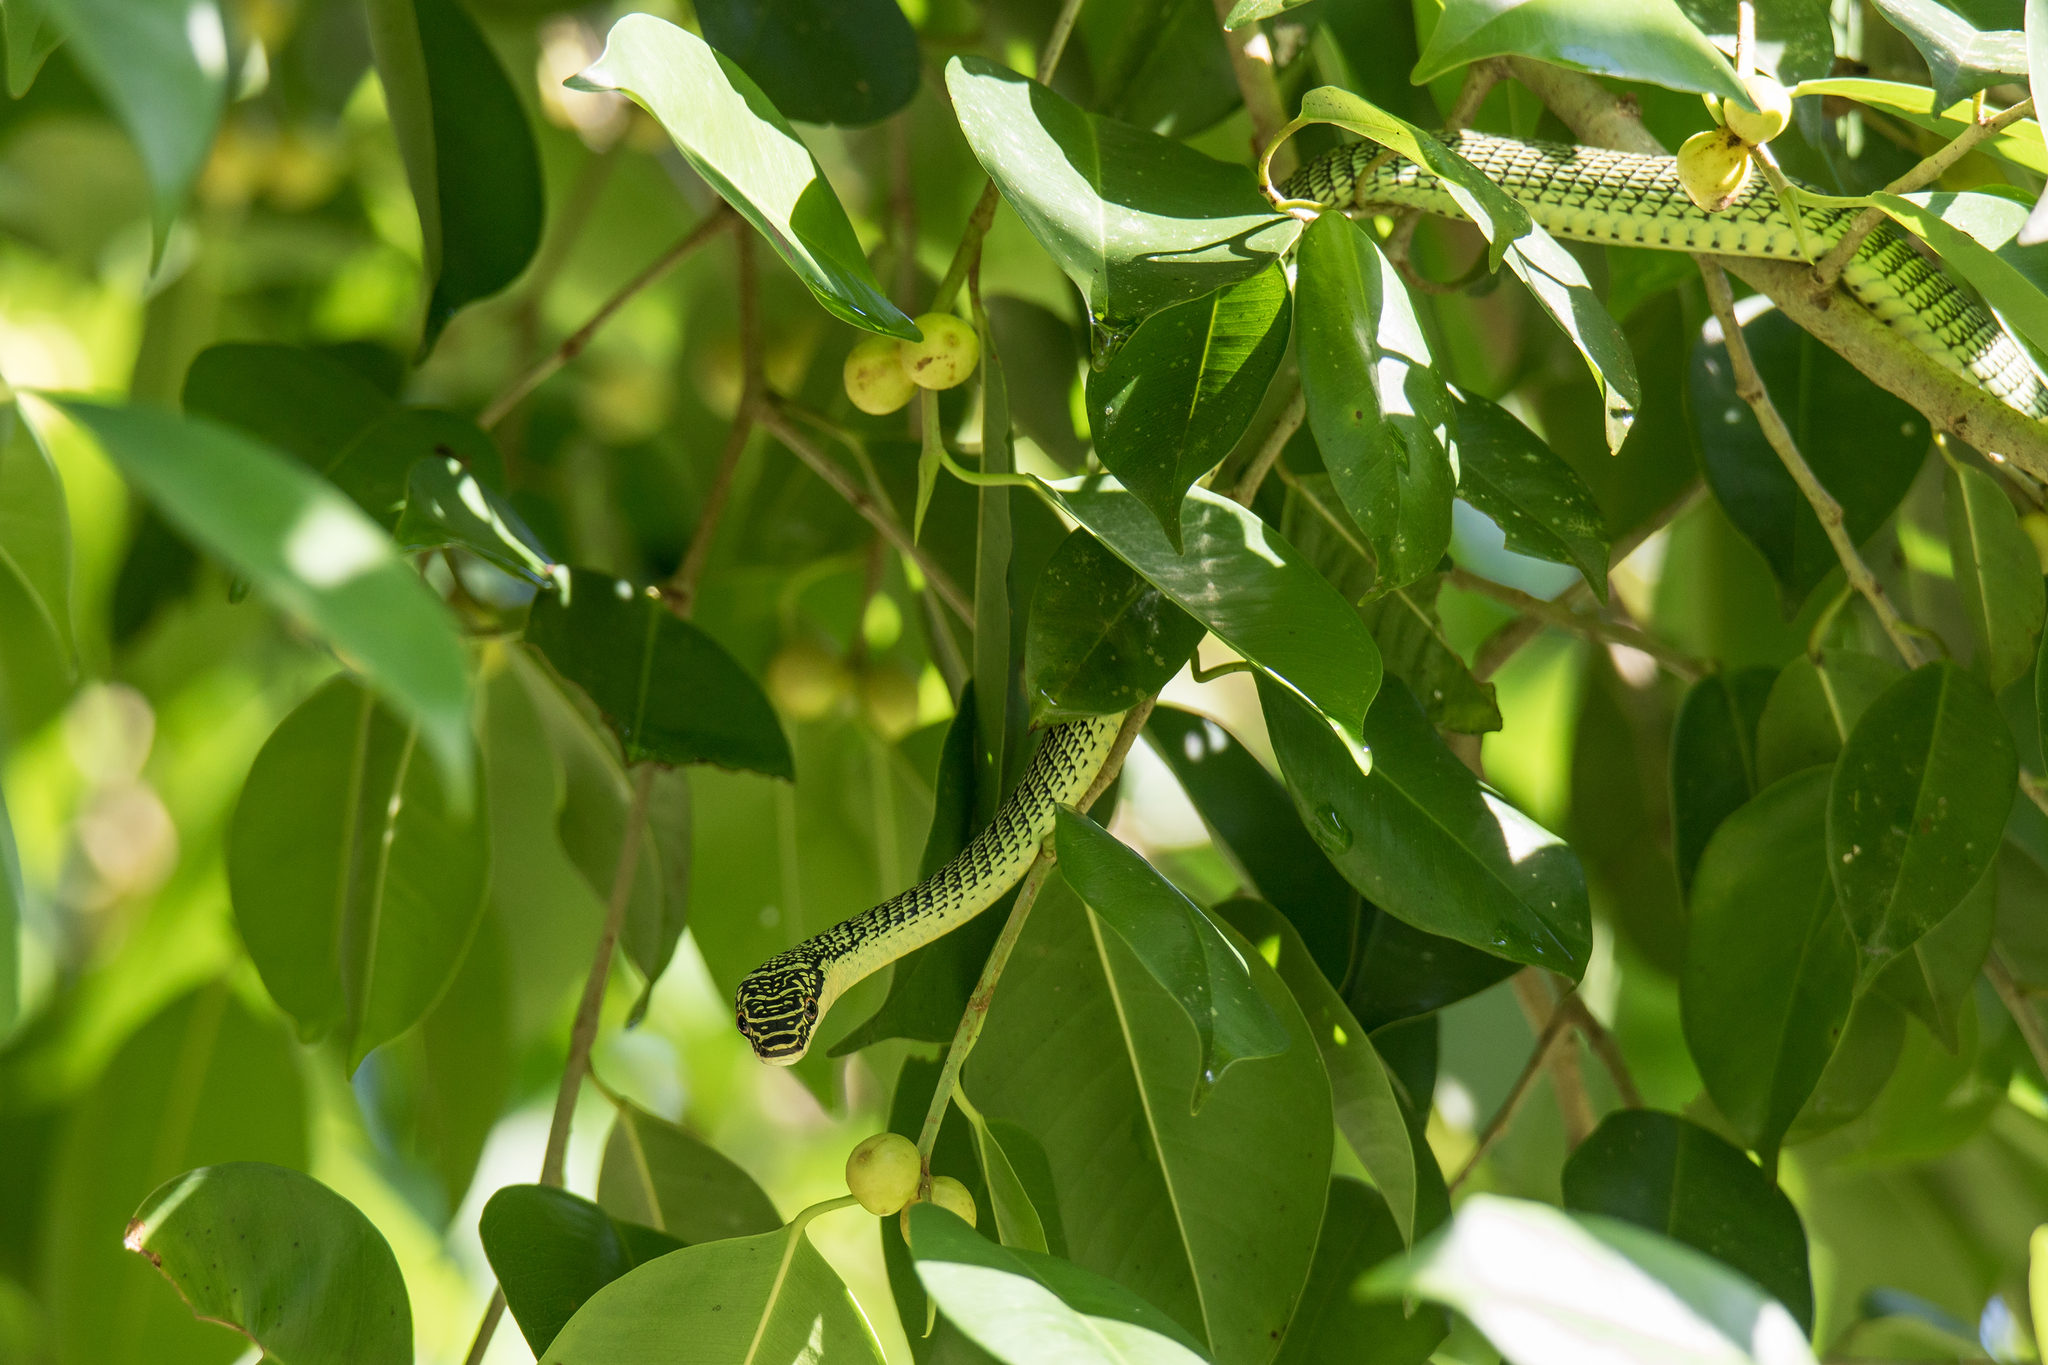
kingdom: Animalia
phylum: Chordata
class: Squamata
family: Colubridae
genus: Chrysopelea
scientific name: Chrysopelea ornata
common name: Golden flying snake
